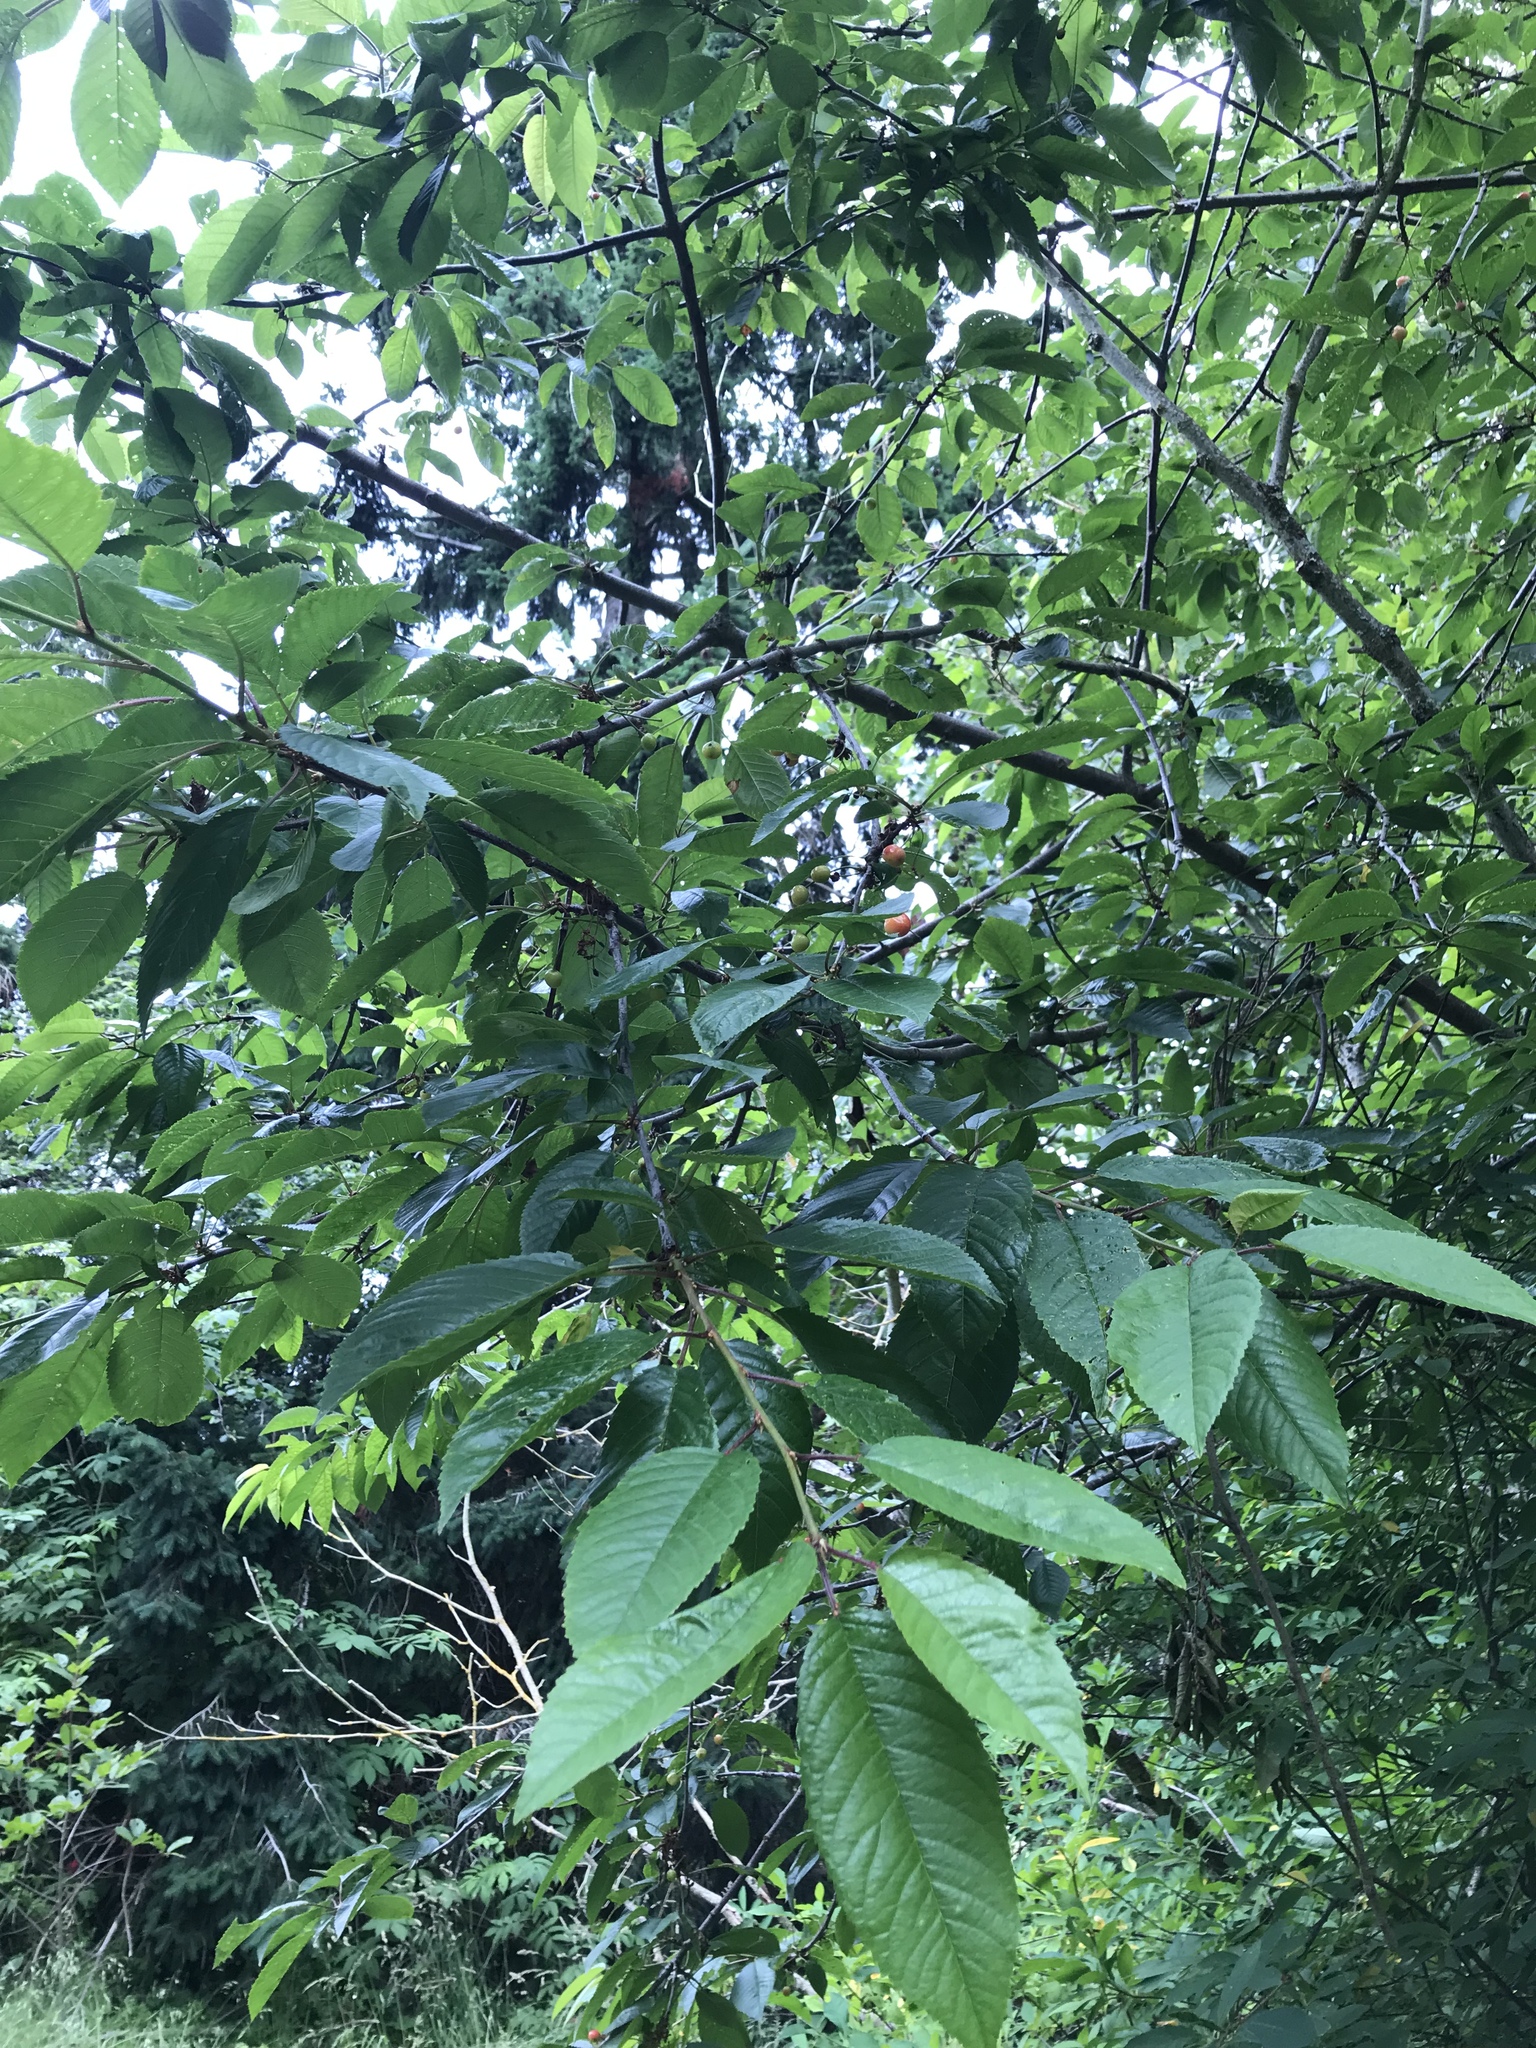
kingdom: Plantae
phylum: Tracheophyta
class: Magnoliopsida
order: Rosales
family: Rosaceae
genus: Prunus
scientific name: Prunus avium
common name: Sweet cherry
